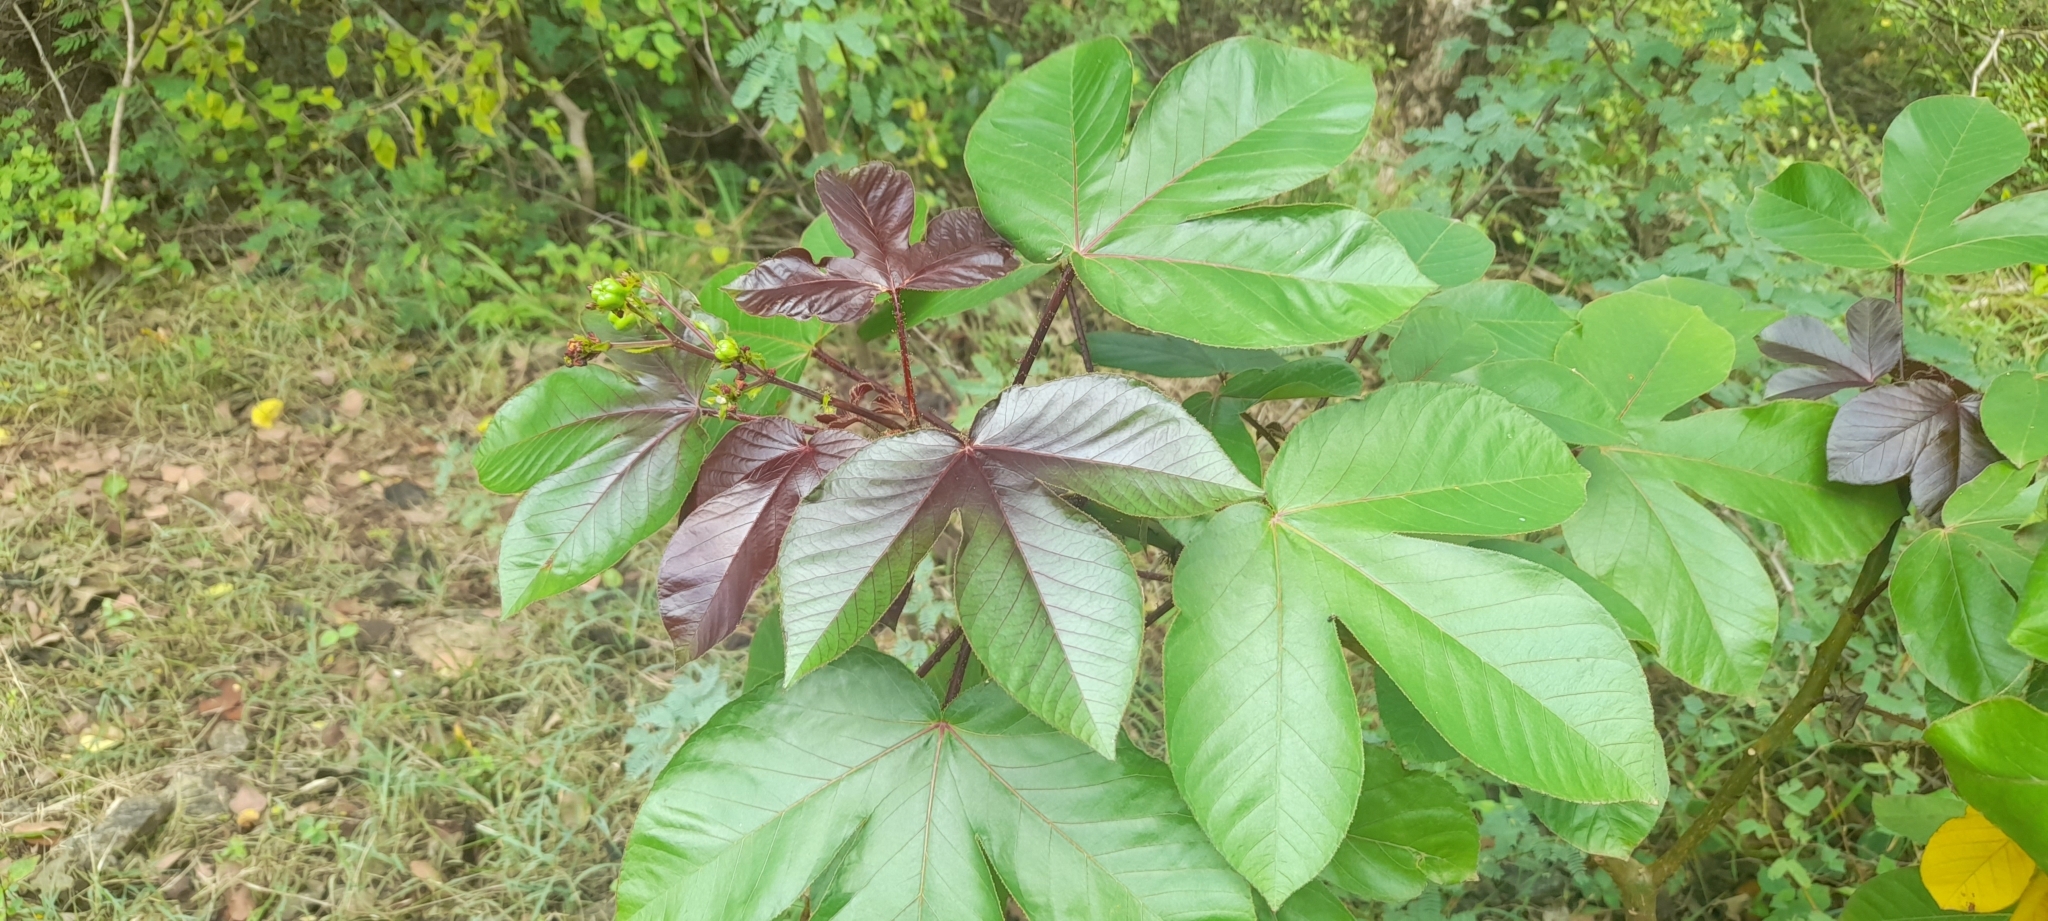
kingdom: Plantae
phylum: Tracheophyta
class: Magnoliopsida
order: Malpighiales
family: Euphorbiaceae
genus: Jatropha
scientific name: Jatropha gossypiifolia
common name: Bellyache bush
